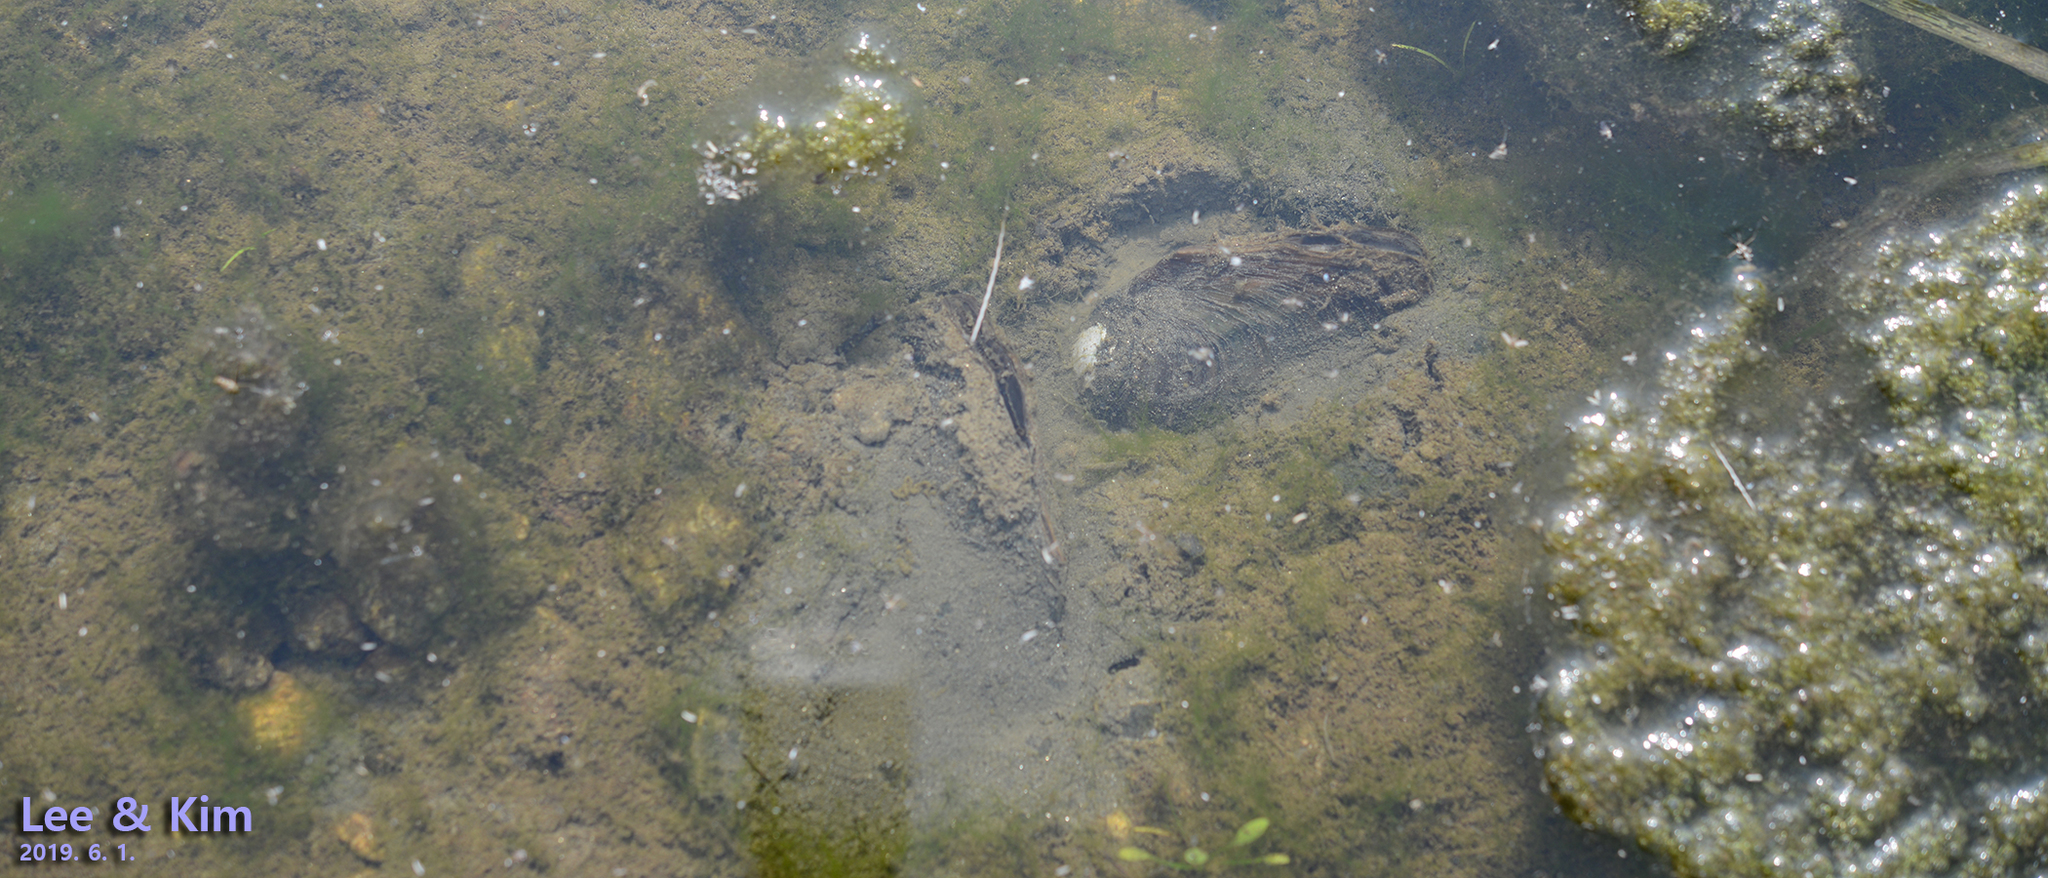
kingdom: Animalia
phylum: Mollusca
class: Bivalvia
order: Unionida
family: Unionidae
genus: Sinanodonta
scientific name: Sinanodonta lauta
